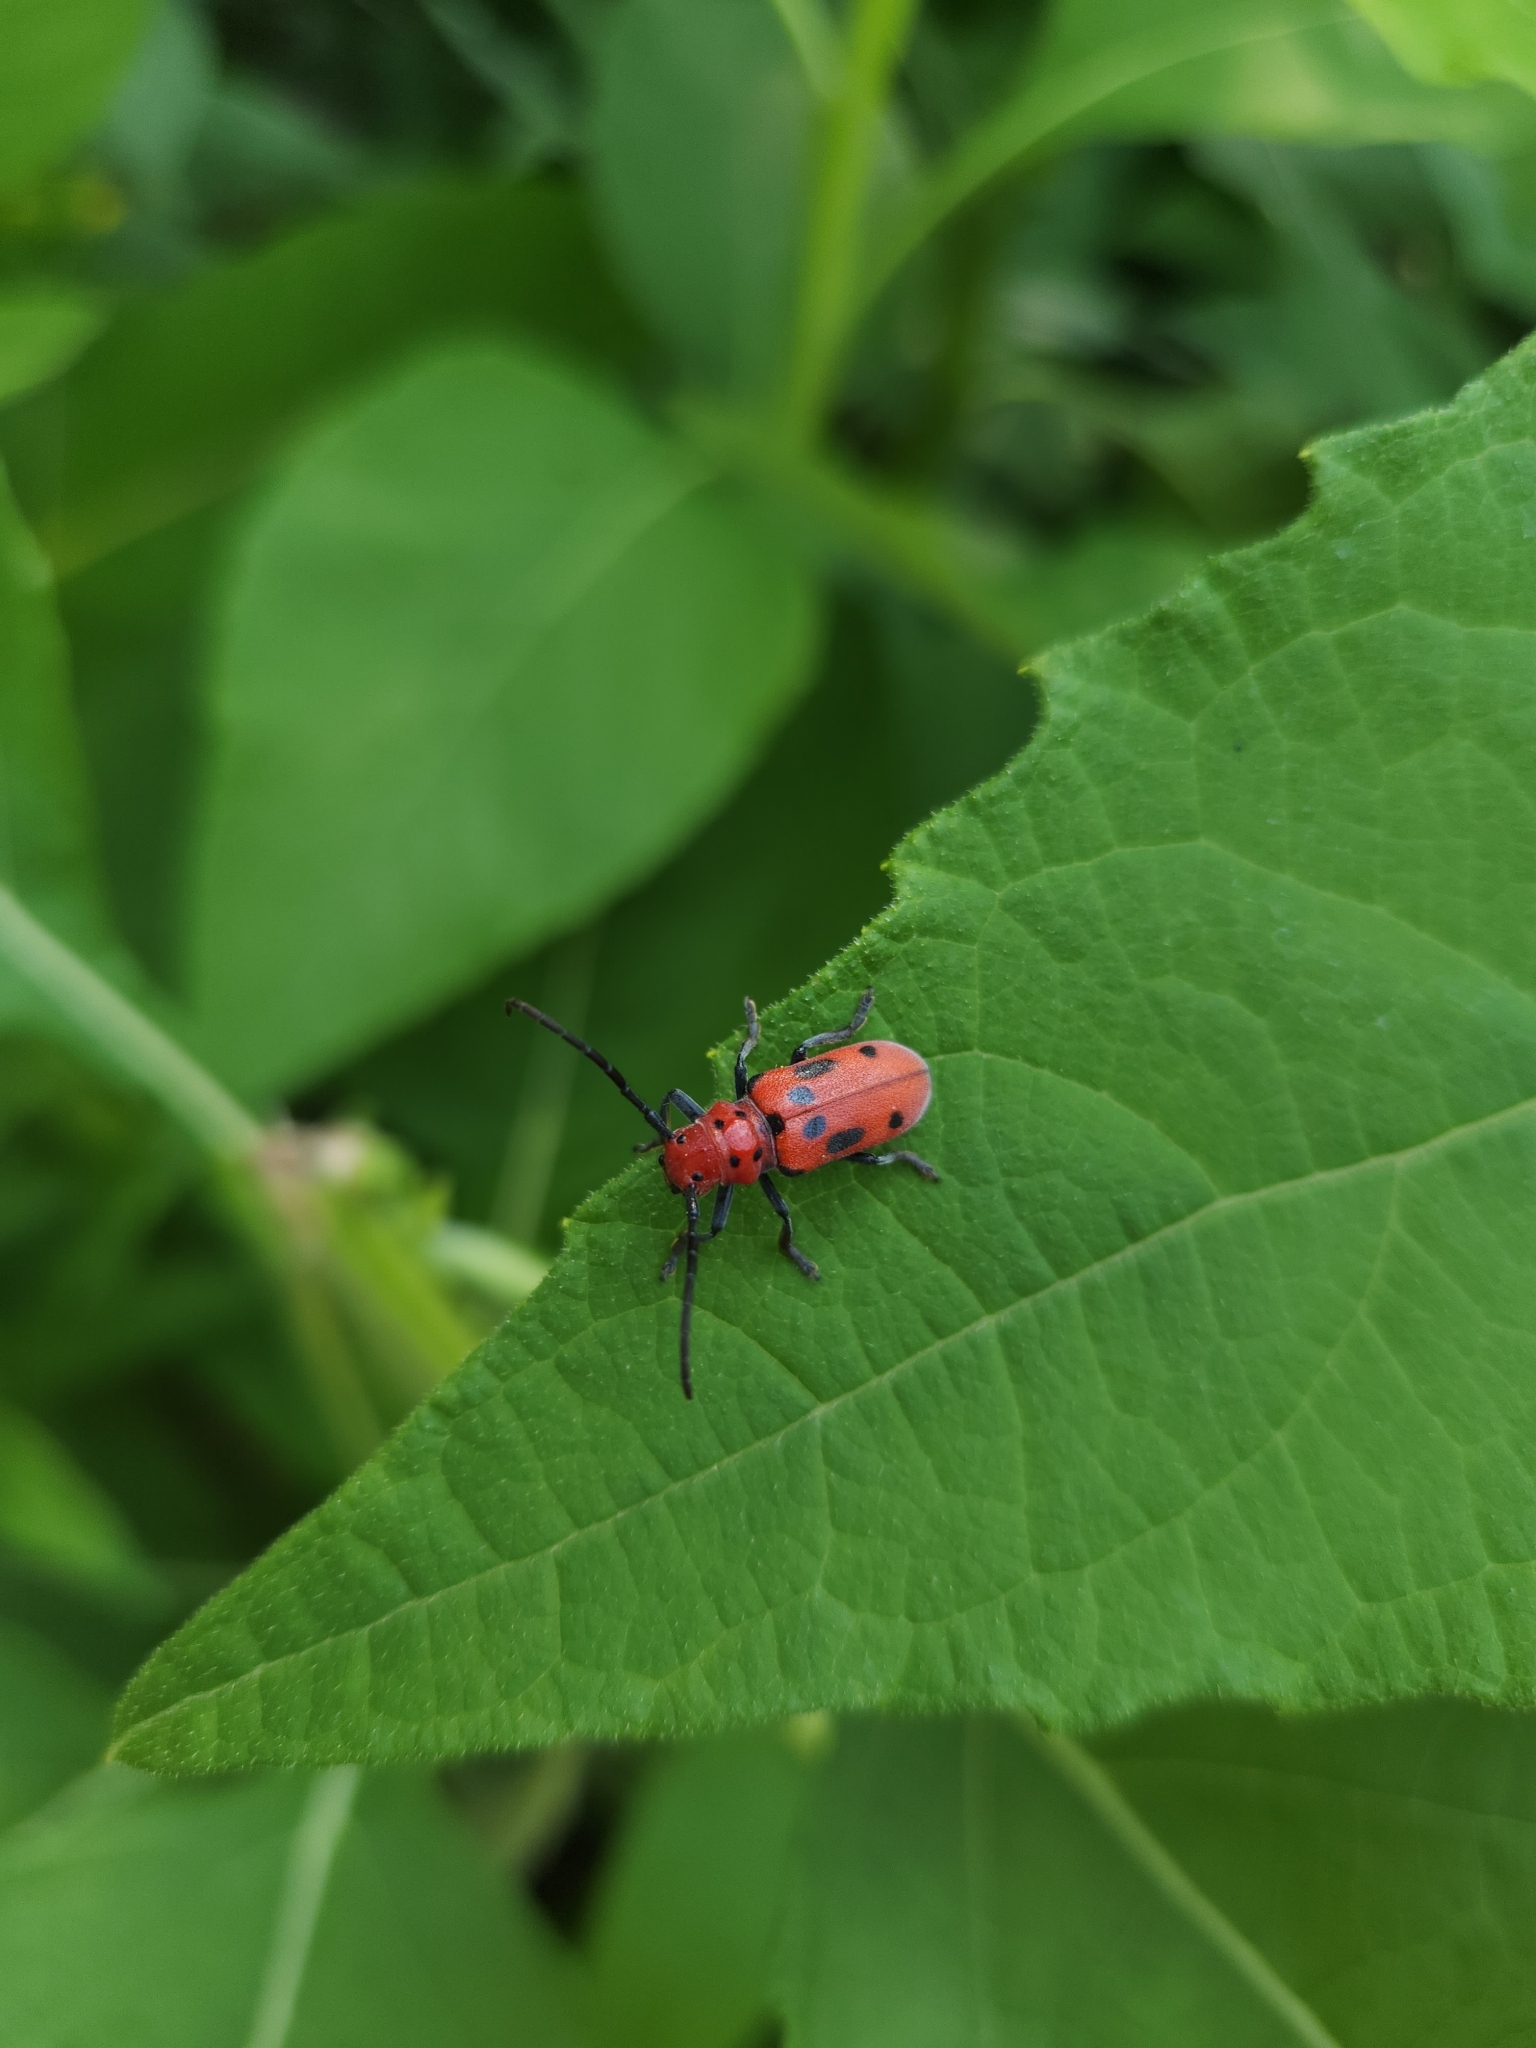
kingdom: Animalia
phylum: Arthropoda
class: Insecta
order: Coleoptera
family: Cerambycidae
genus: Tetraopes
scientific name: Tetraopes tetrophthalmus
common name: Red milkweed beetle
